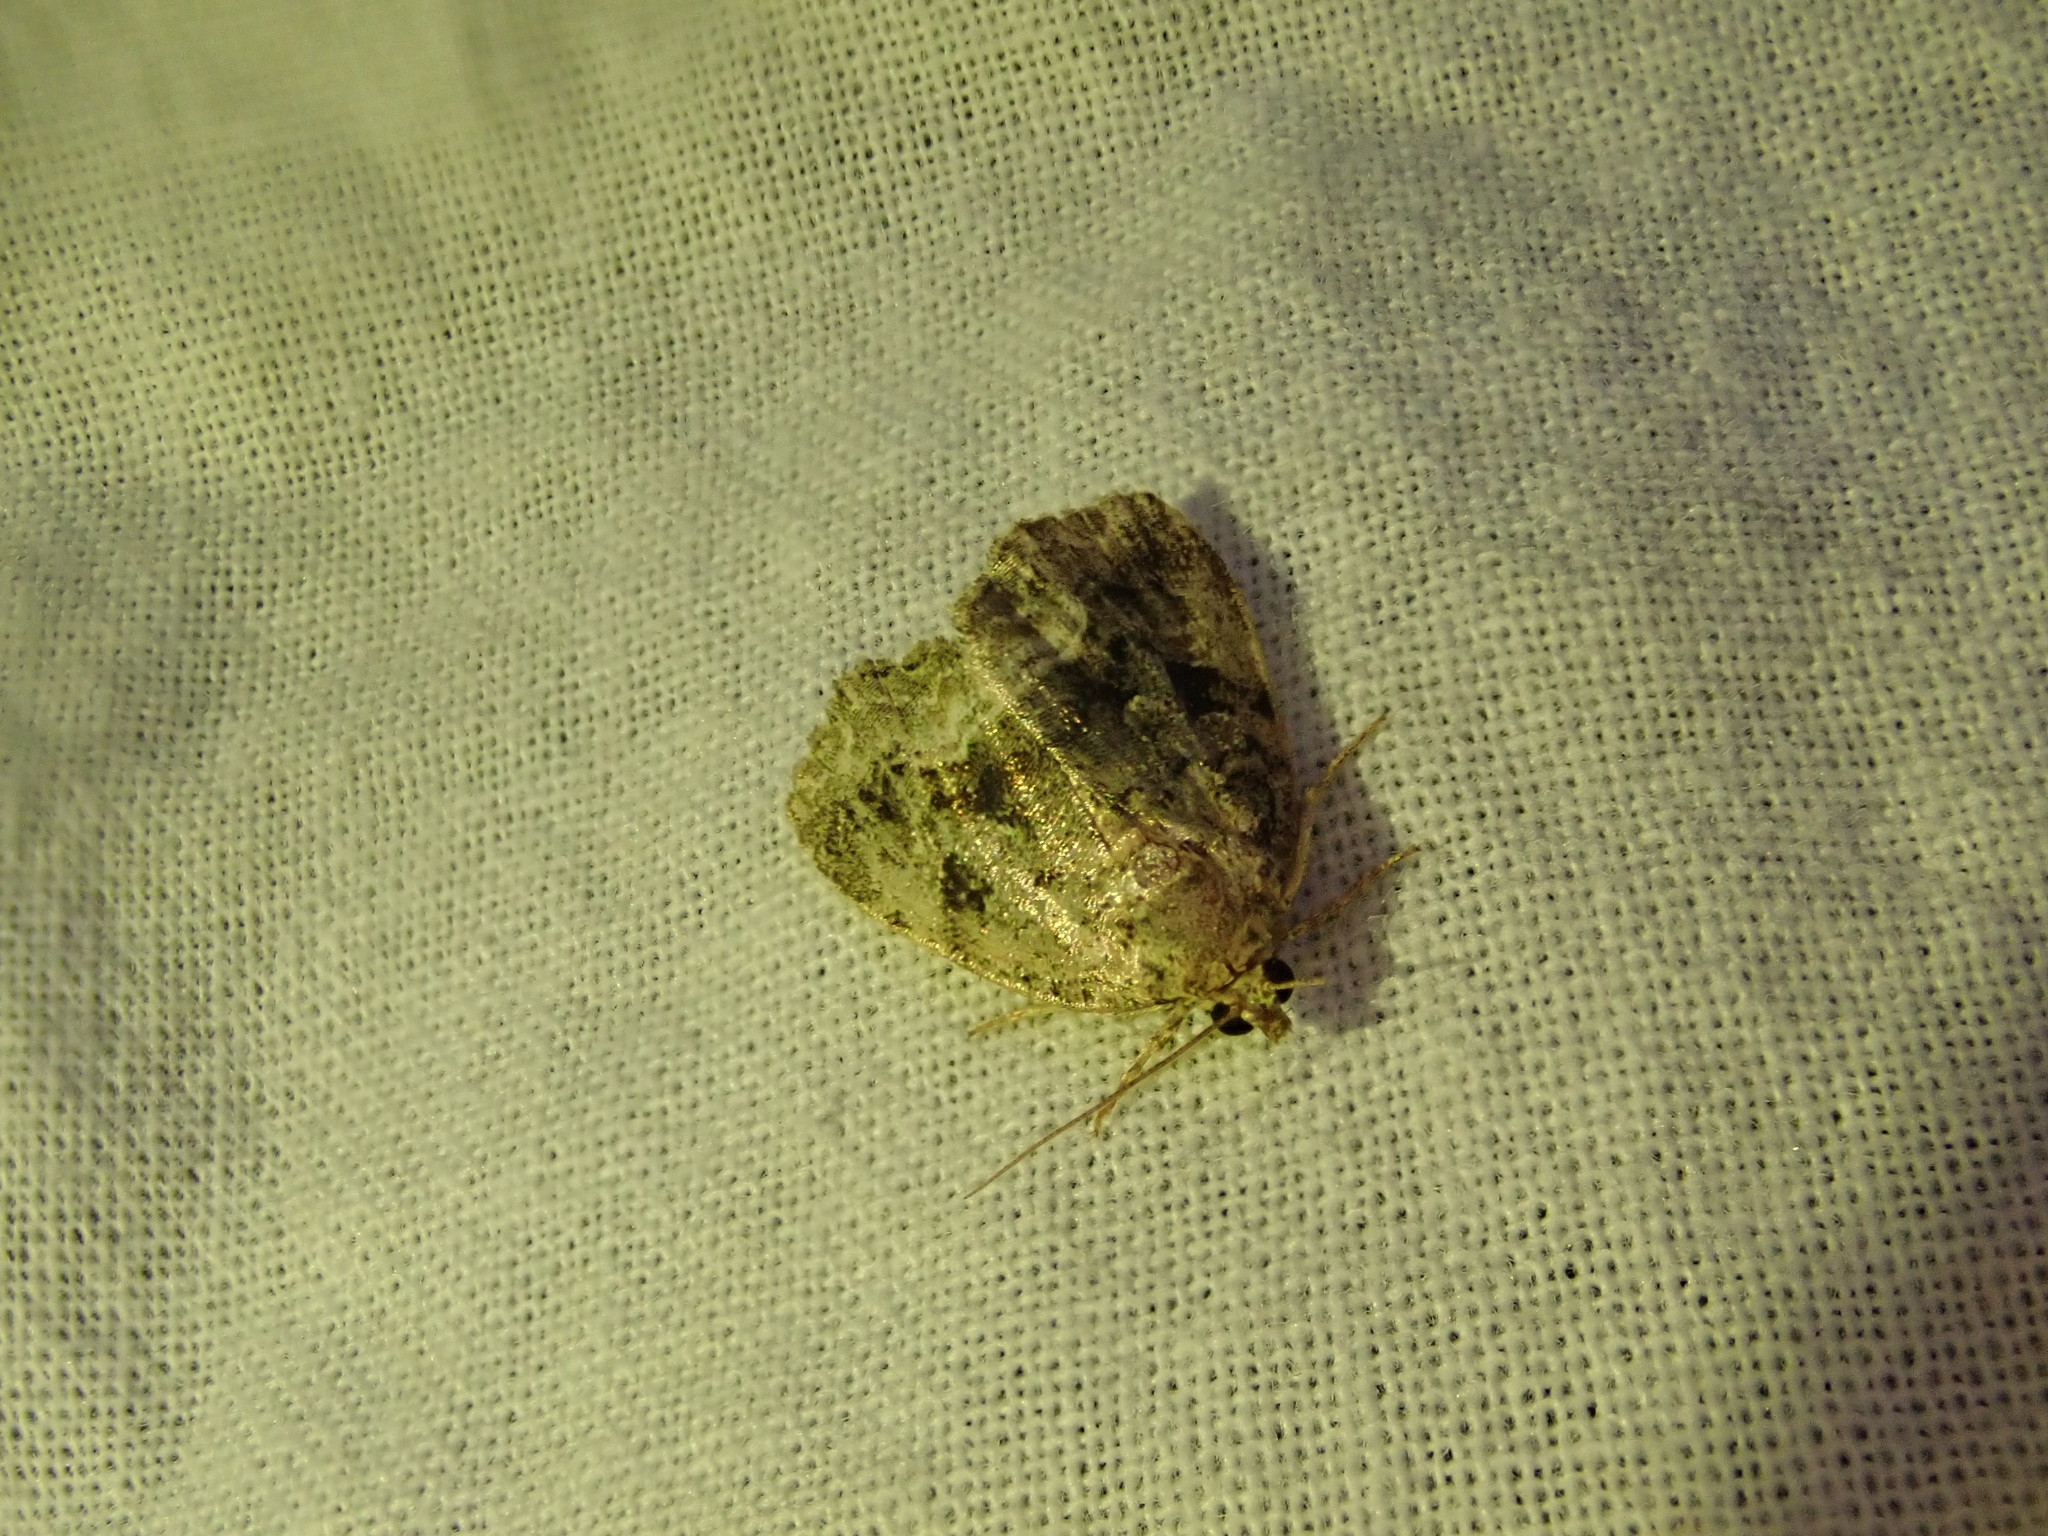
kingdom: Animalia
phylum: Arthropoda
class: Insecta
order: Lepidoptera
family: Noctuidae
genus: Protodeltote
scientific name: Protodeltote muscosula
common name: Large mossy glyph
